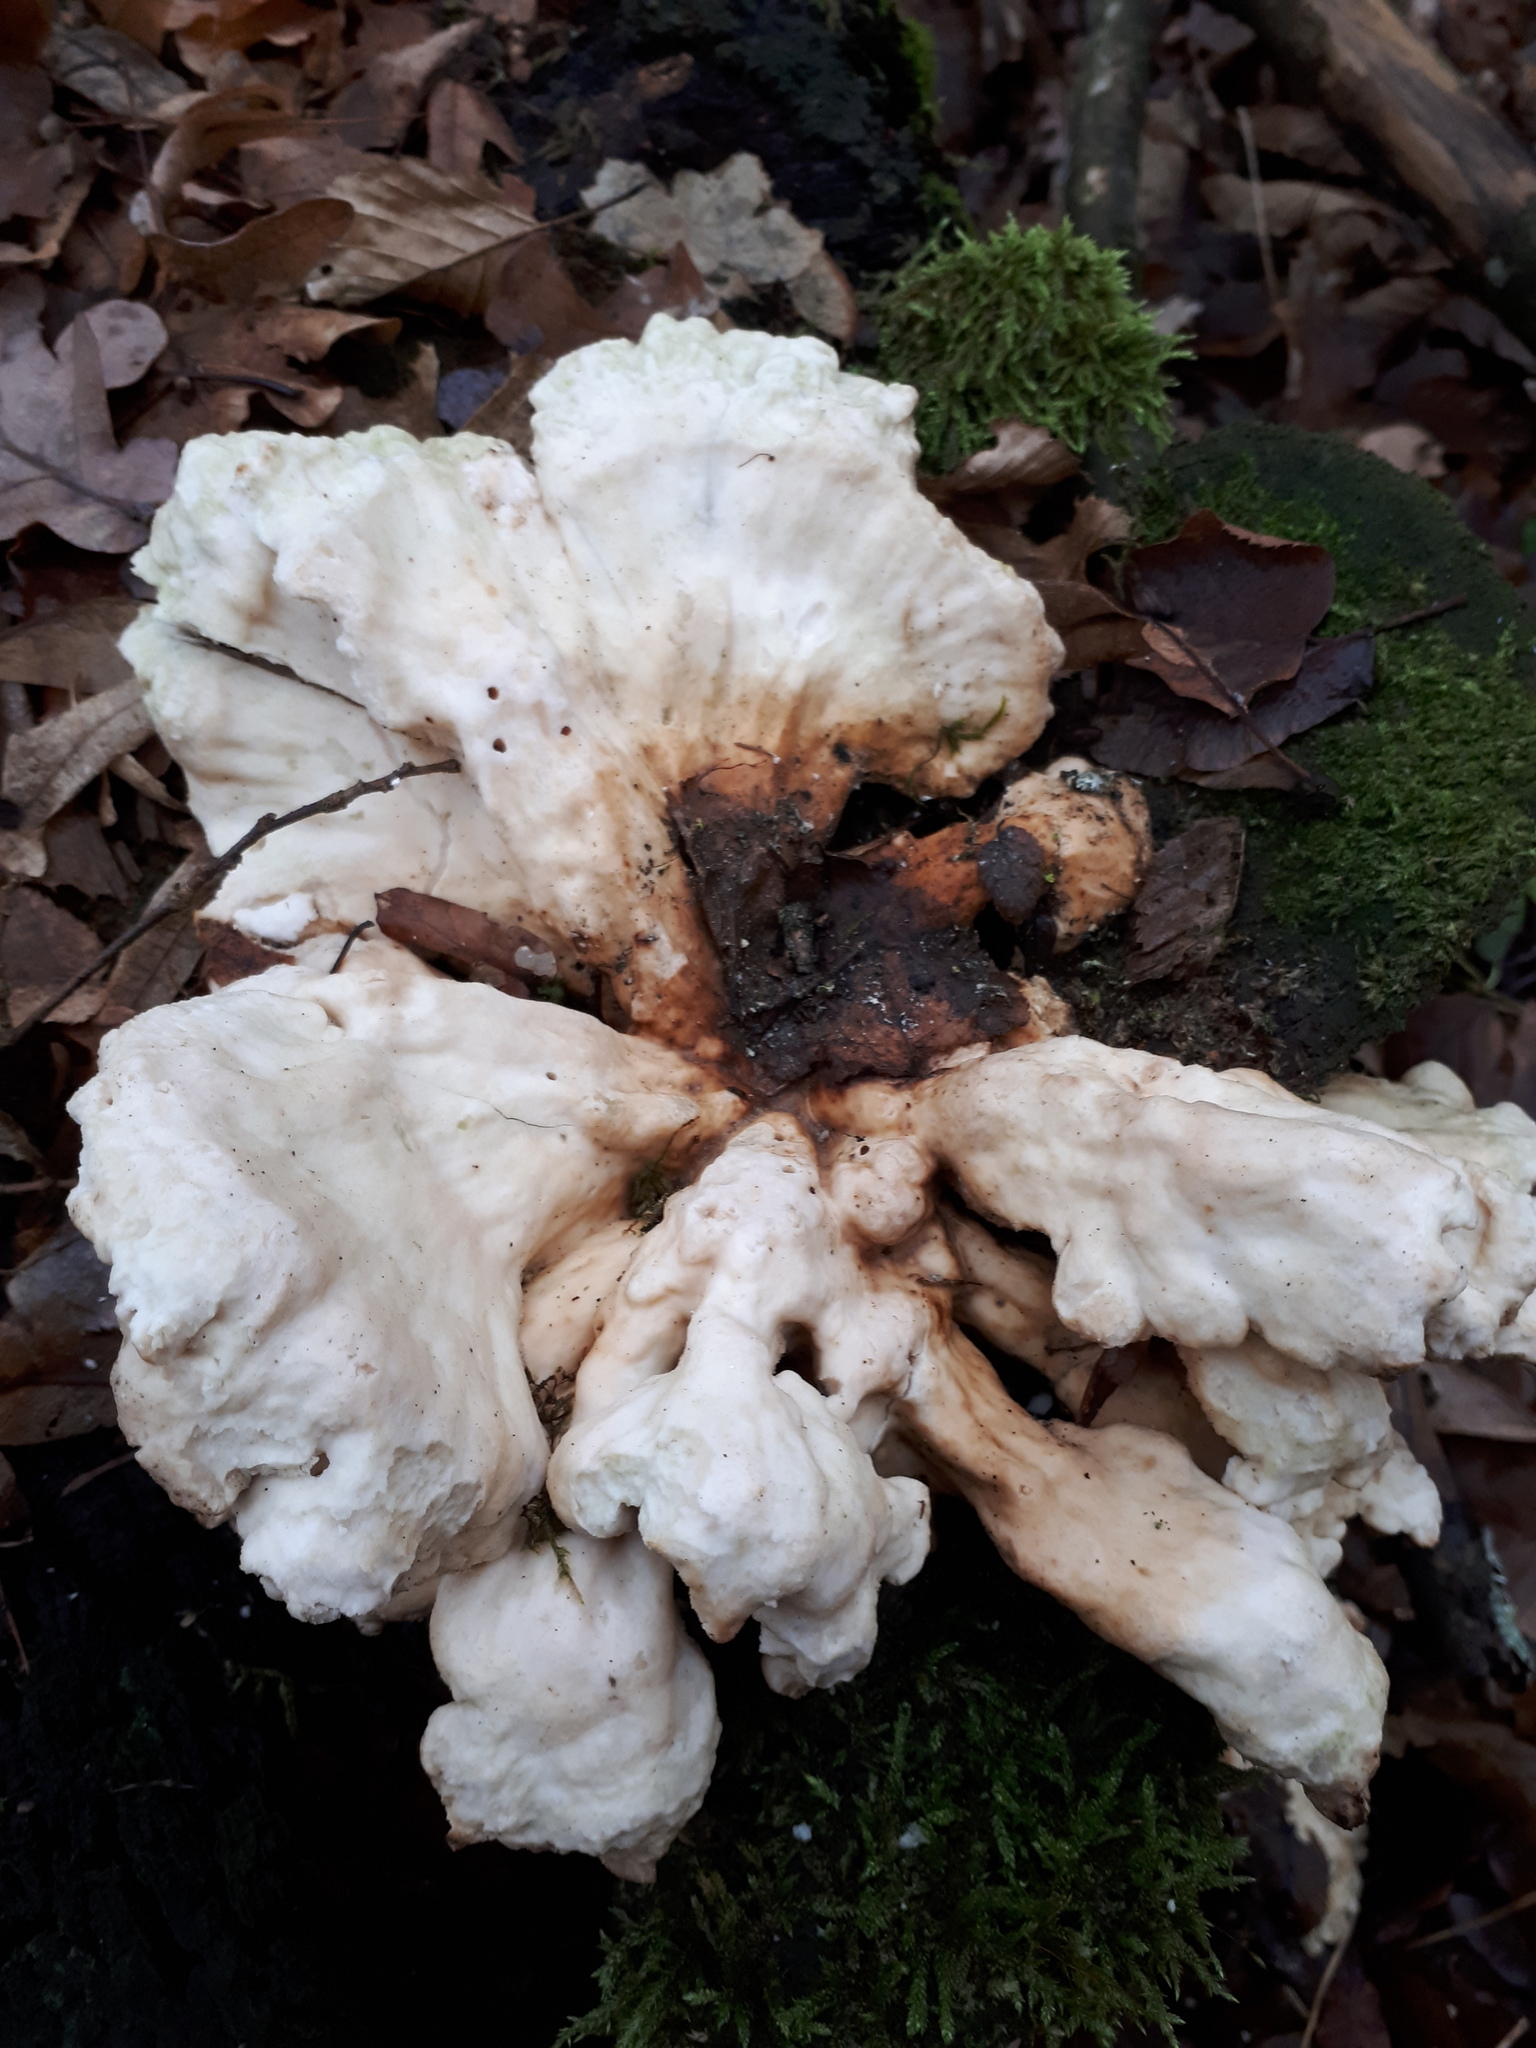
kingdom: Fungi
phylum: Basidiomycota
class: Agaricomycetes
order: Polyporales
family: Podoscyphaceae
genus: Abortiporus
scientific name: Abortiporus biennis
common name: Blushing rosette
